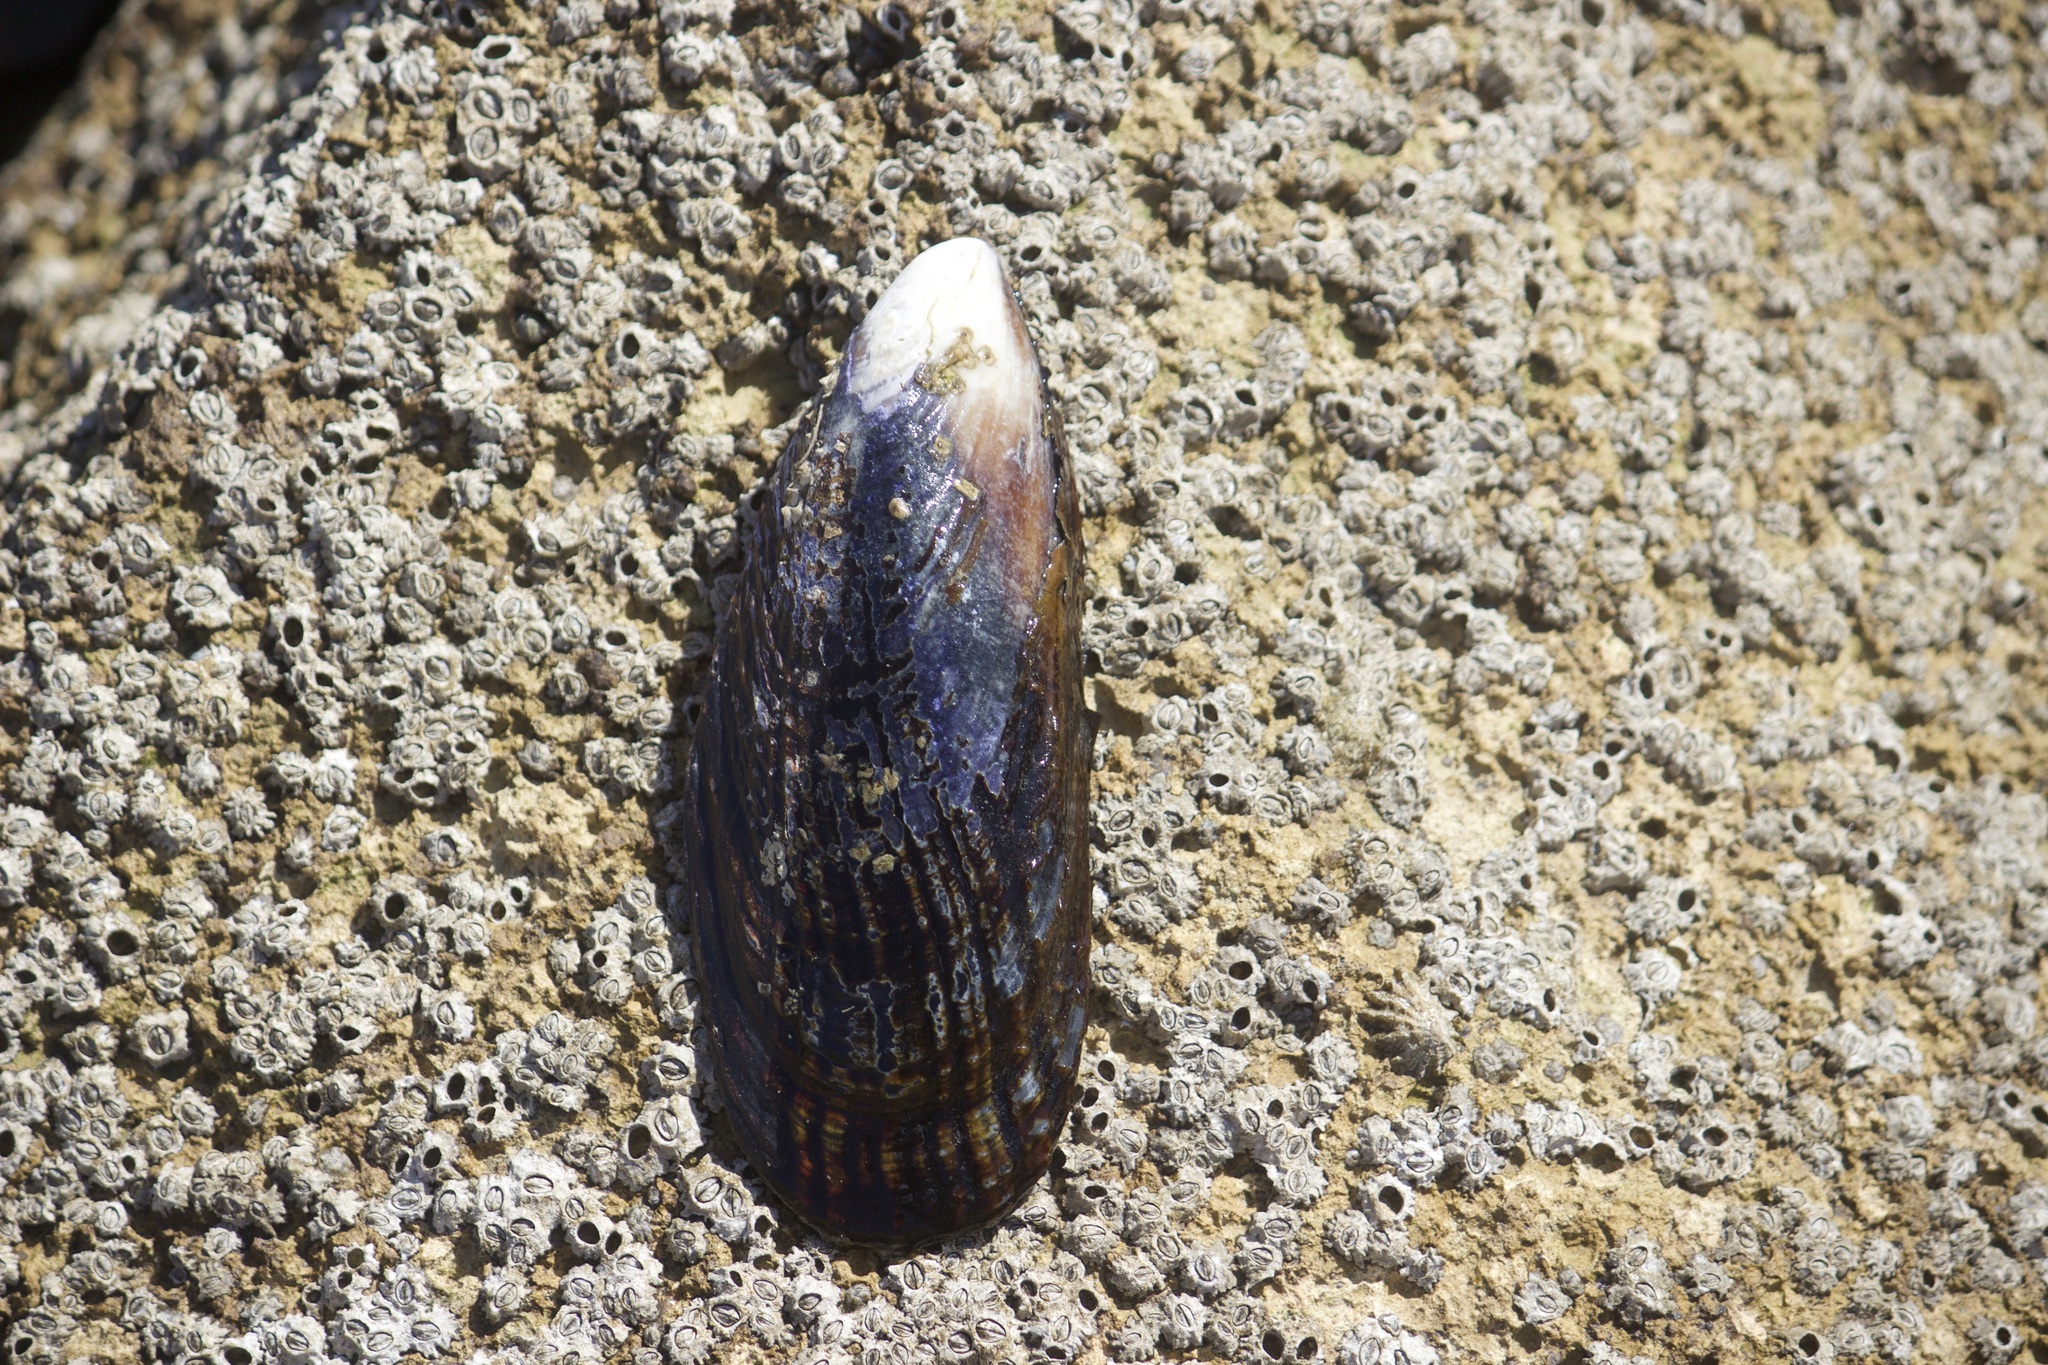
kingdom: Animalia
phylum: Mollusca
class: Bivalvia
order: Mytilida
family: Mytilidae
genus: Mytilus
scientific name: Mytilus californianus
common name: California mussel
